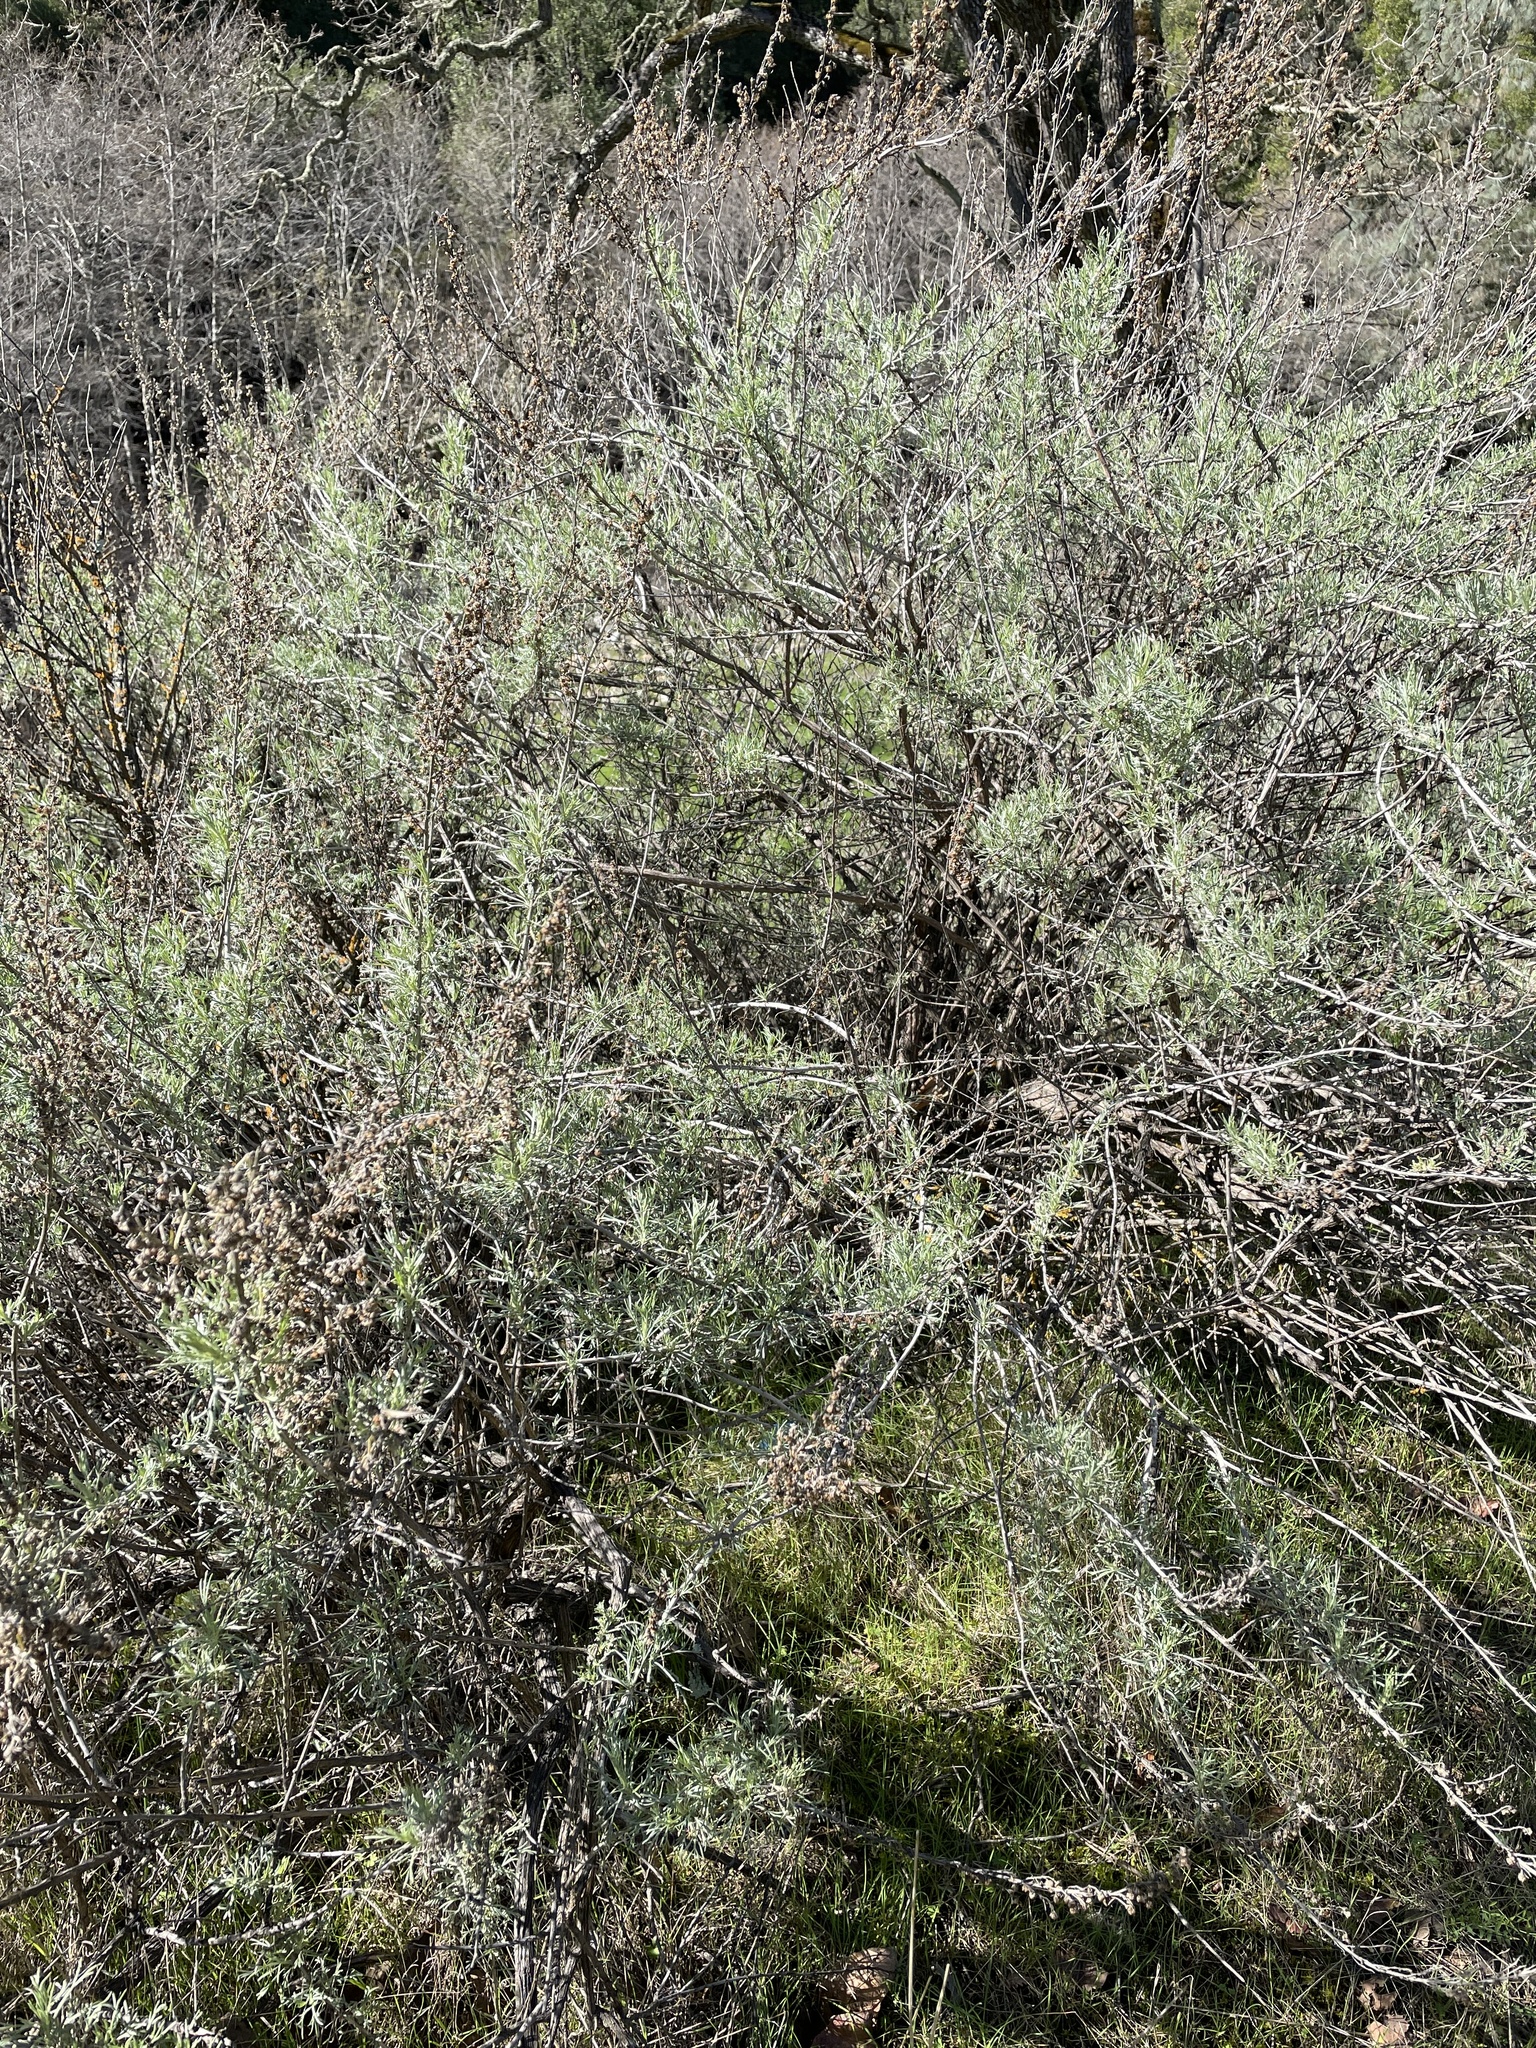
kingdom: Plantae
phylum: Tracheophyta
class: Magnoliopsida
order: Asterales
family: Asteraceae
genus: Artemisia
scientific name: Artemisia californica
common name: California sagebrush
